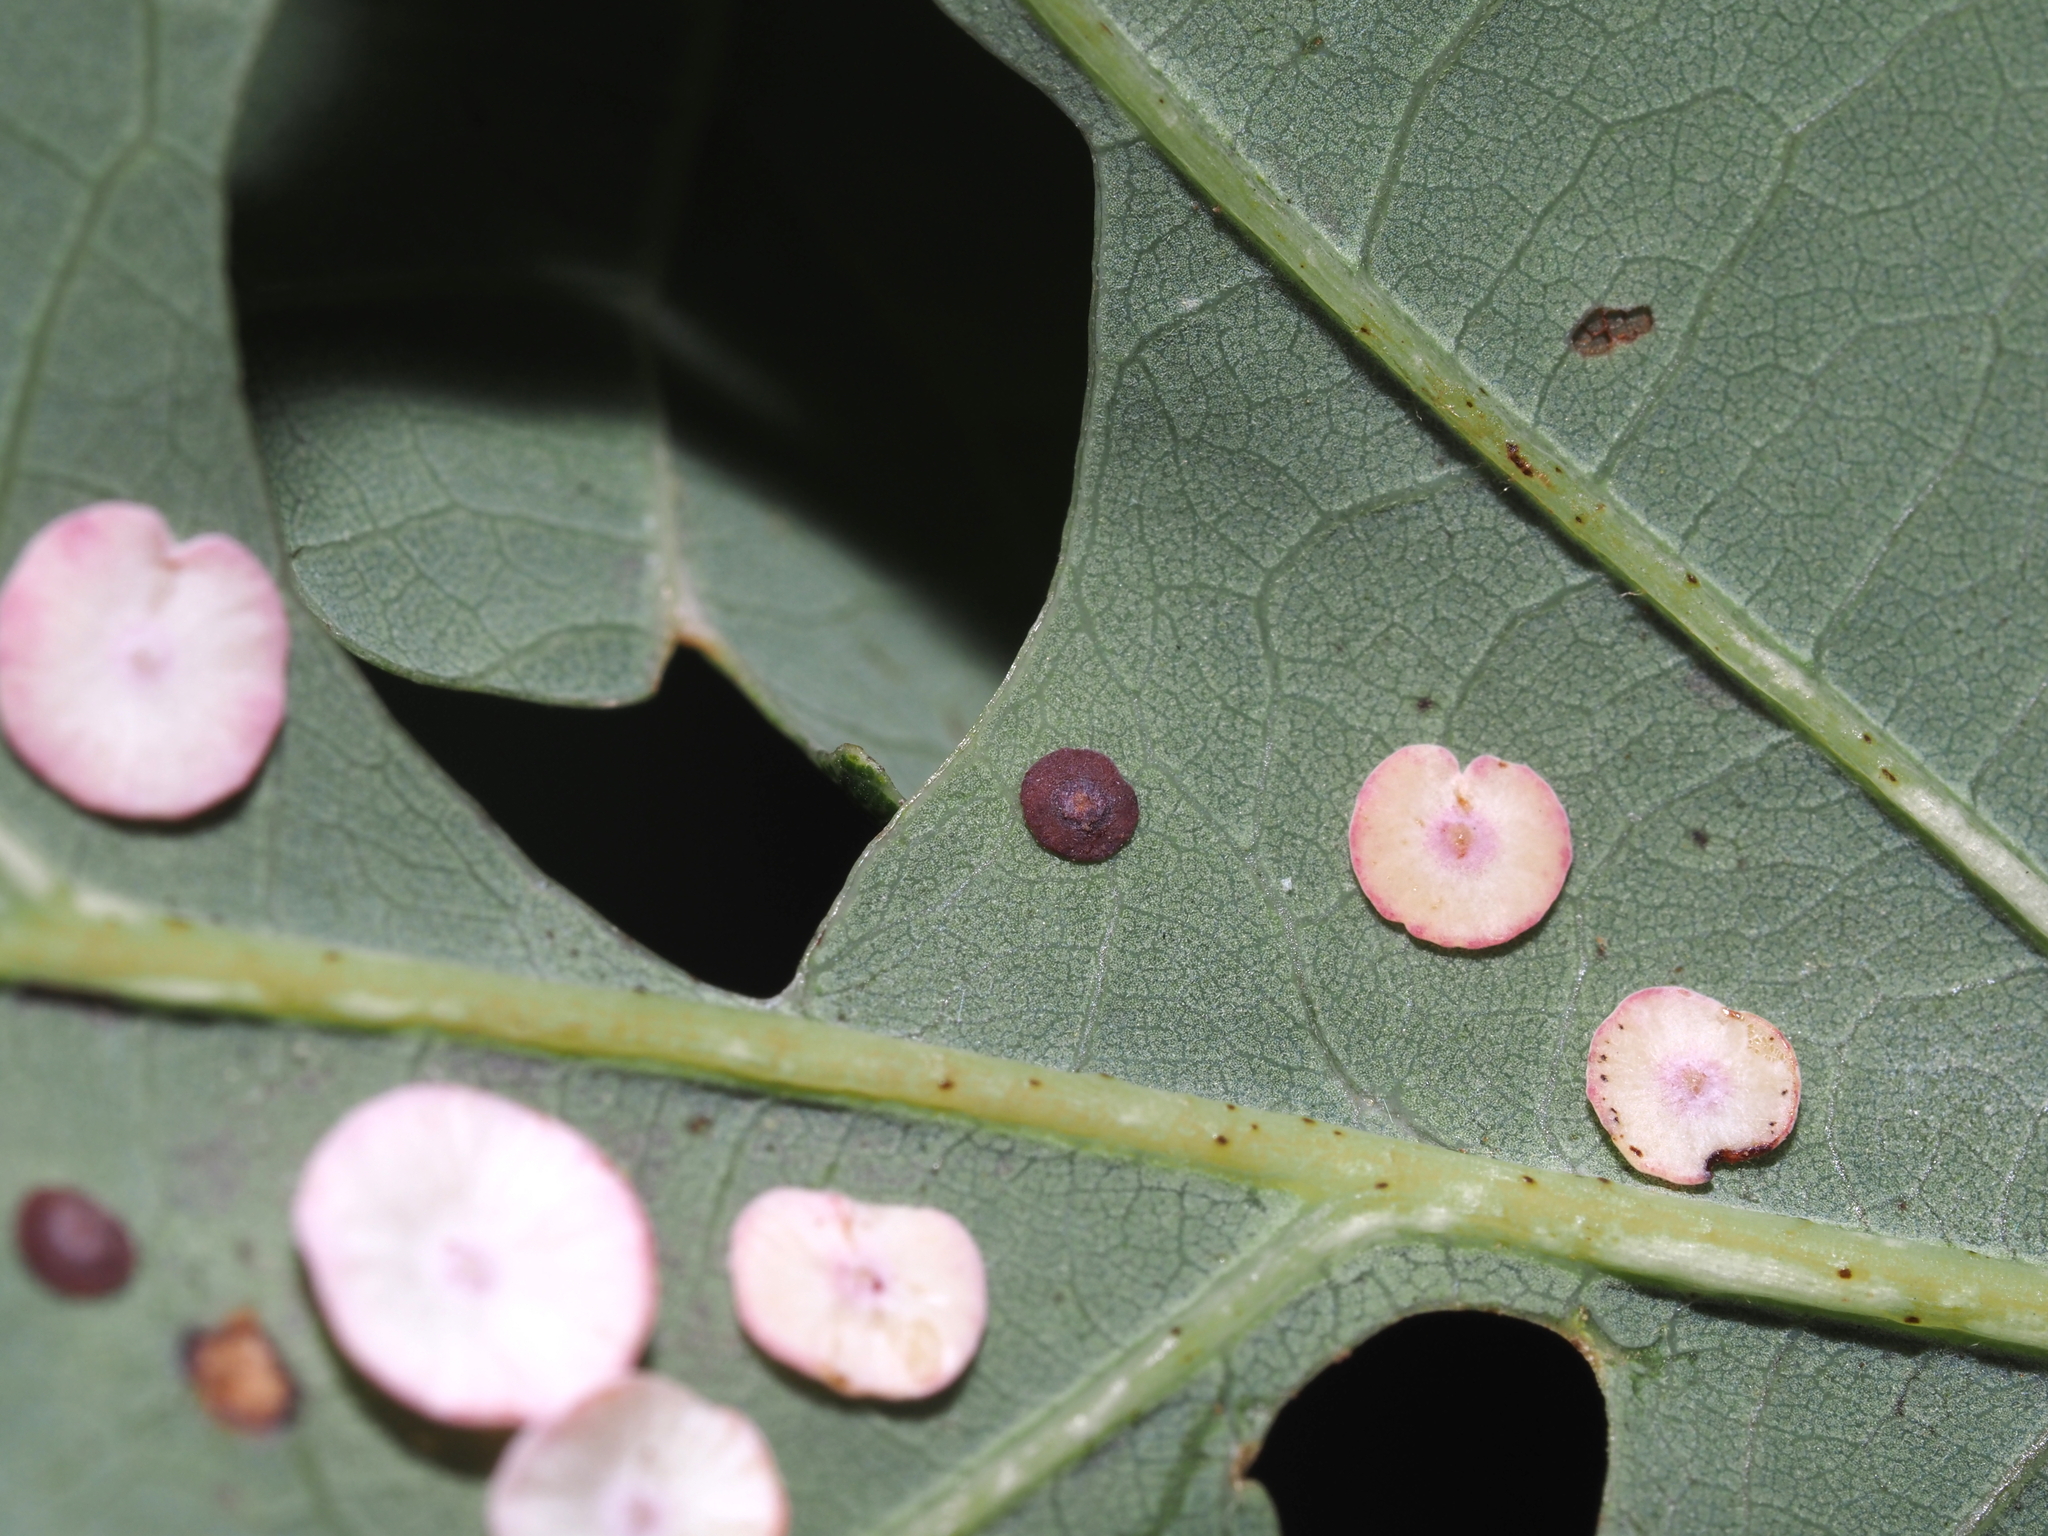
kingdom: Animalia
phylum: Arthropoda
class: Insecta
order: Hymenoptera
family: Cynipidae
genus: Phylloteras
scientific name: Phylloteras poculum
